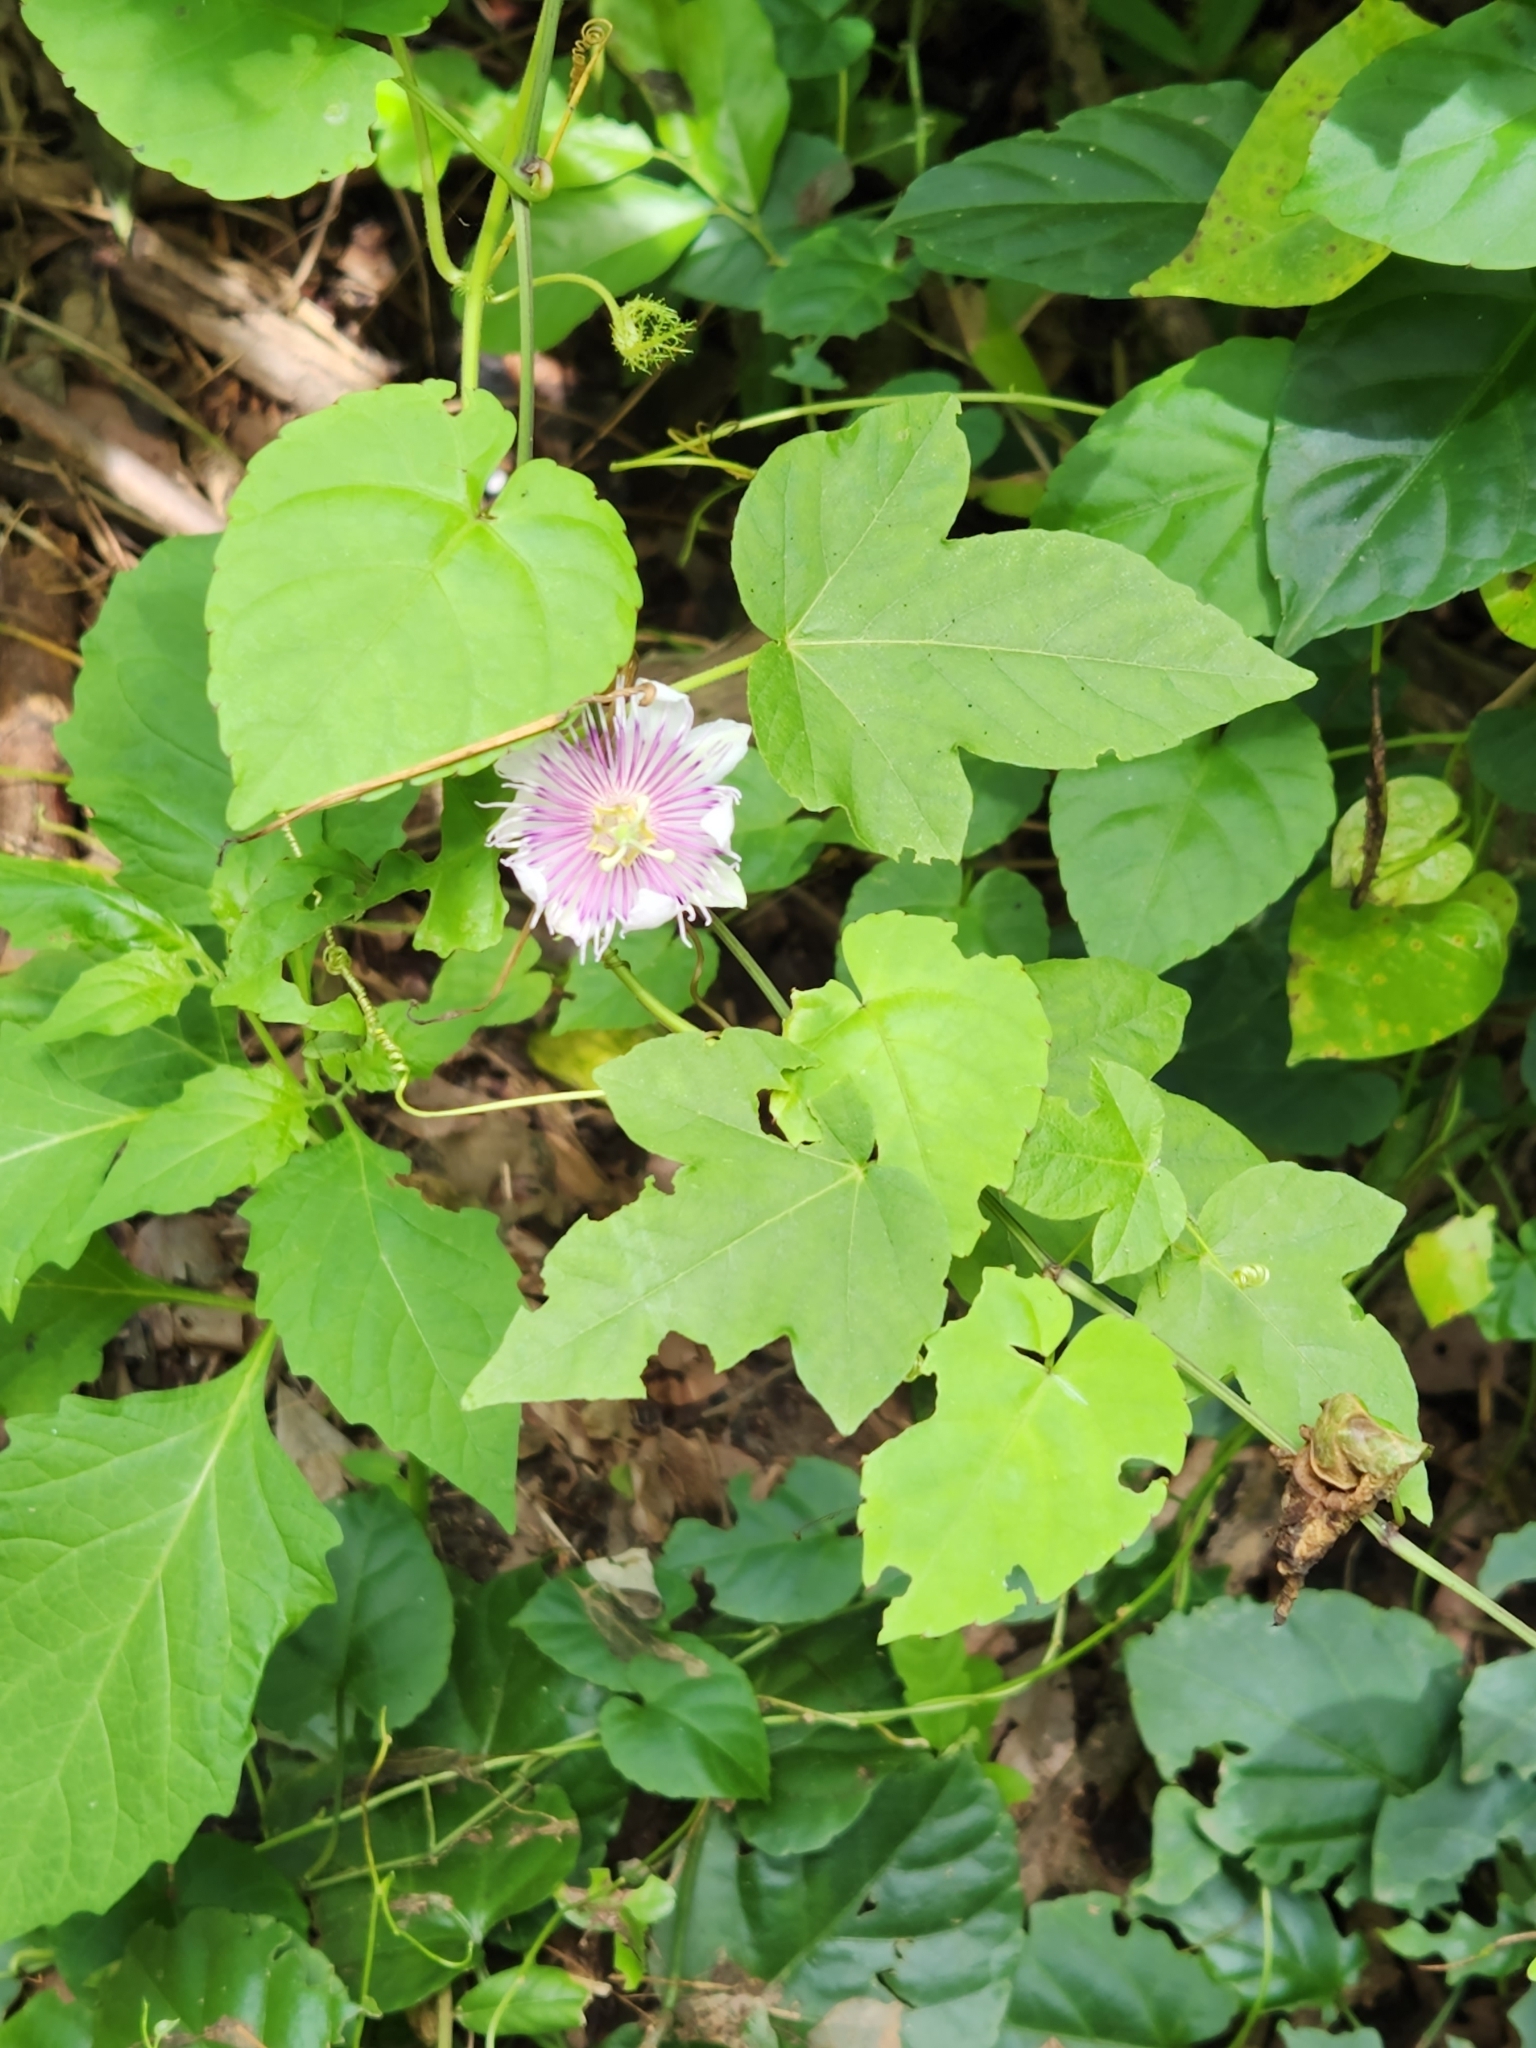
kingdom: Plantae
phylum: Tracheophyta
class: Magnoliopsida
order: Malpighiales
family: Passifloraceae
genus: Passiflora
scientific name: Passiflora foetida
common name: Fetid passionflower
